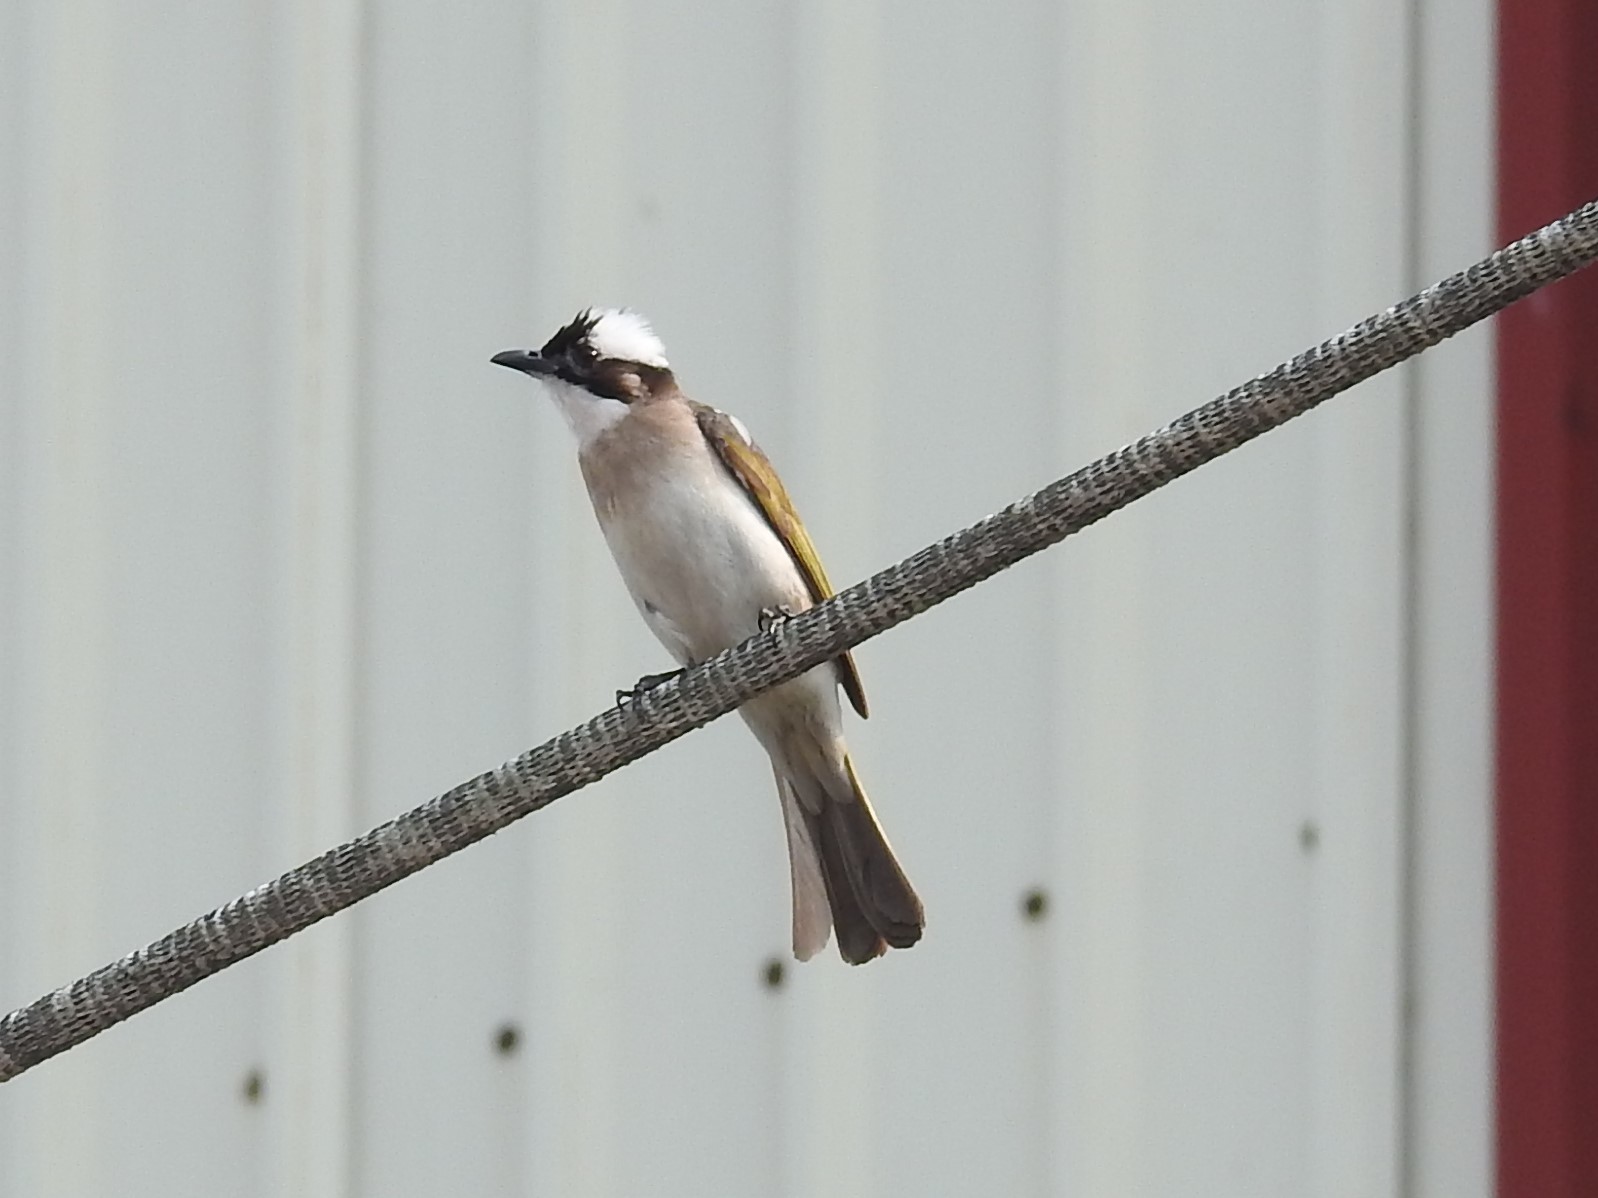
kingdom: Animalia
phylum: Chordata
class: Aves
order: Passeriformes
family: Pycnonotidae
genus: Pycnonotus
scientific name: Pycnonotus sinensis
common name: Light-vented bulbul
